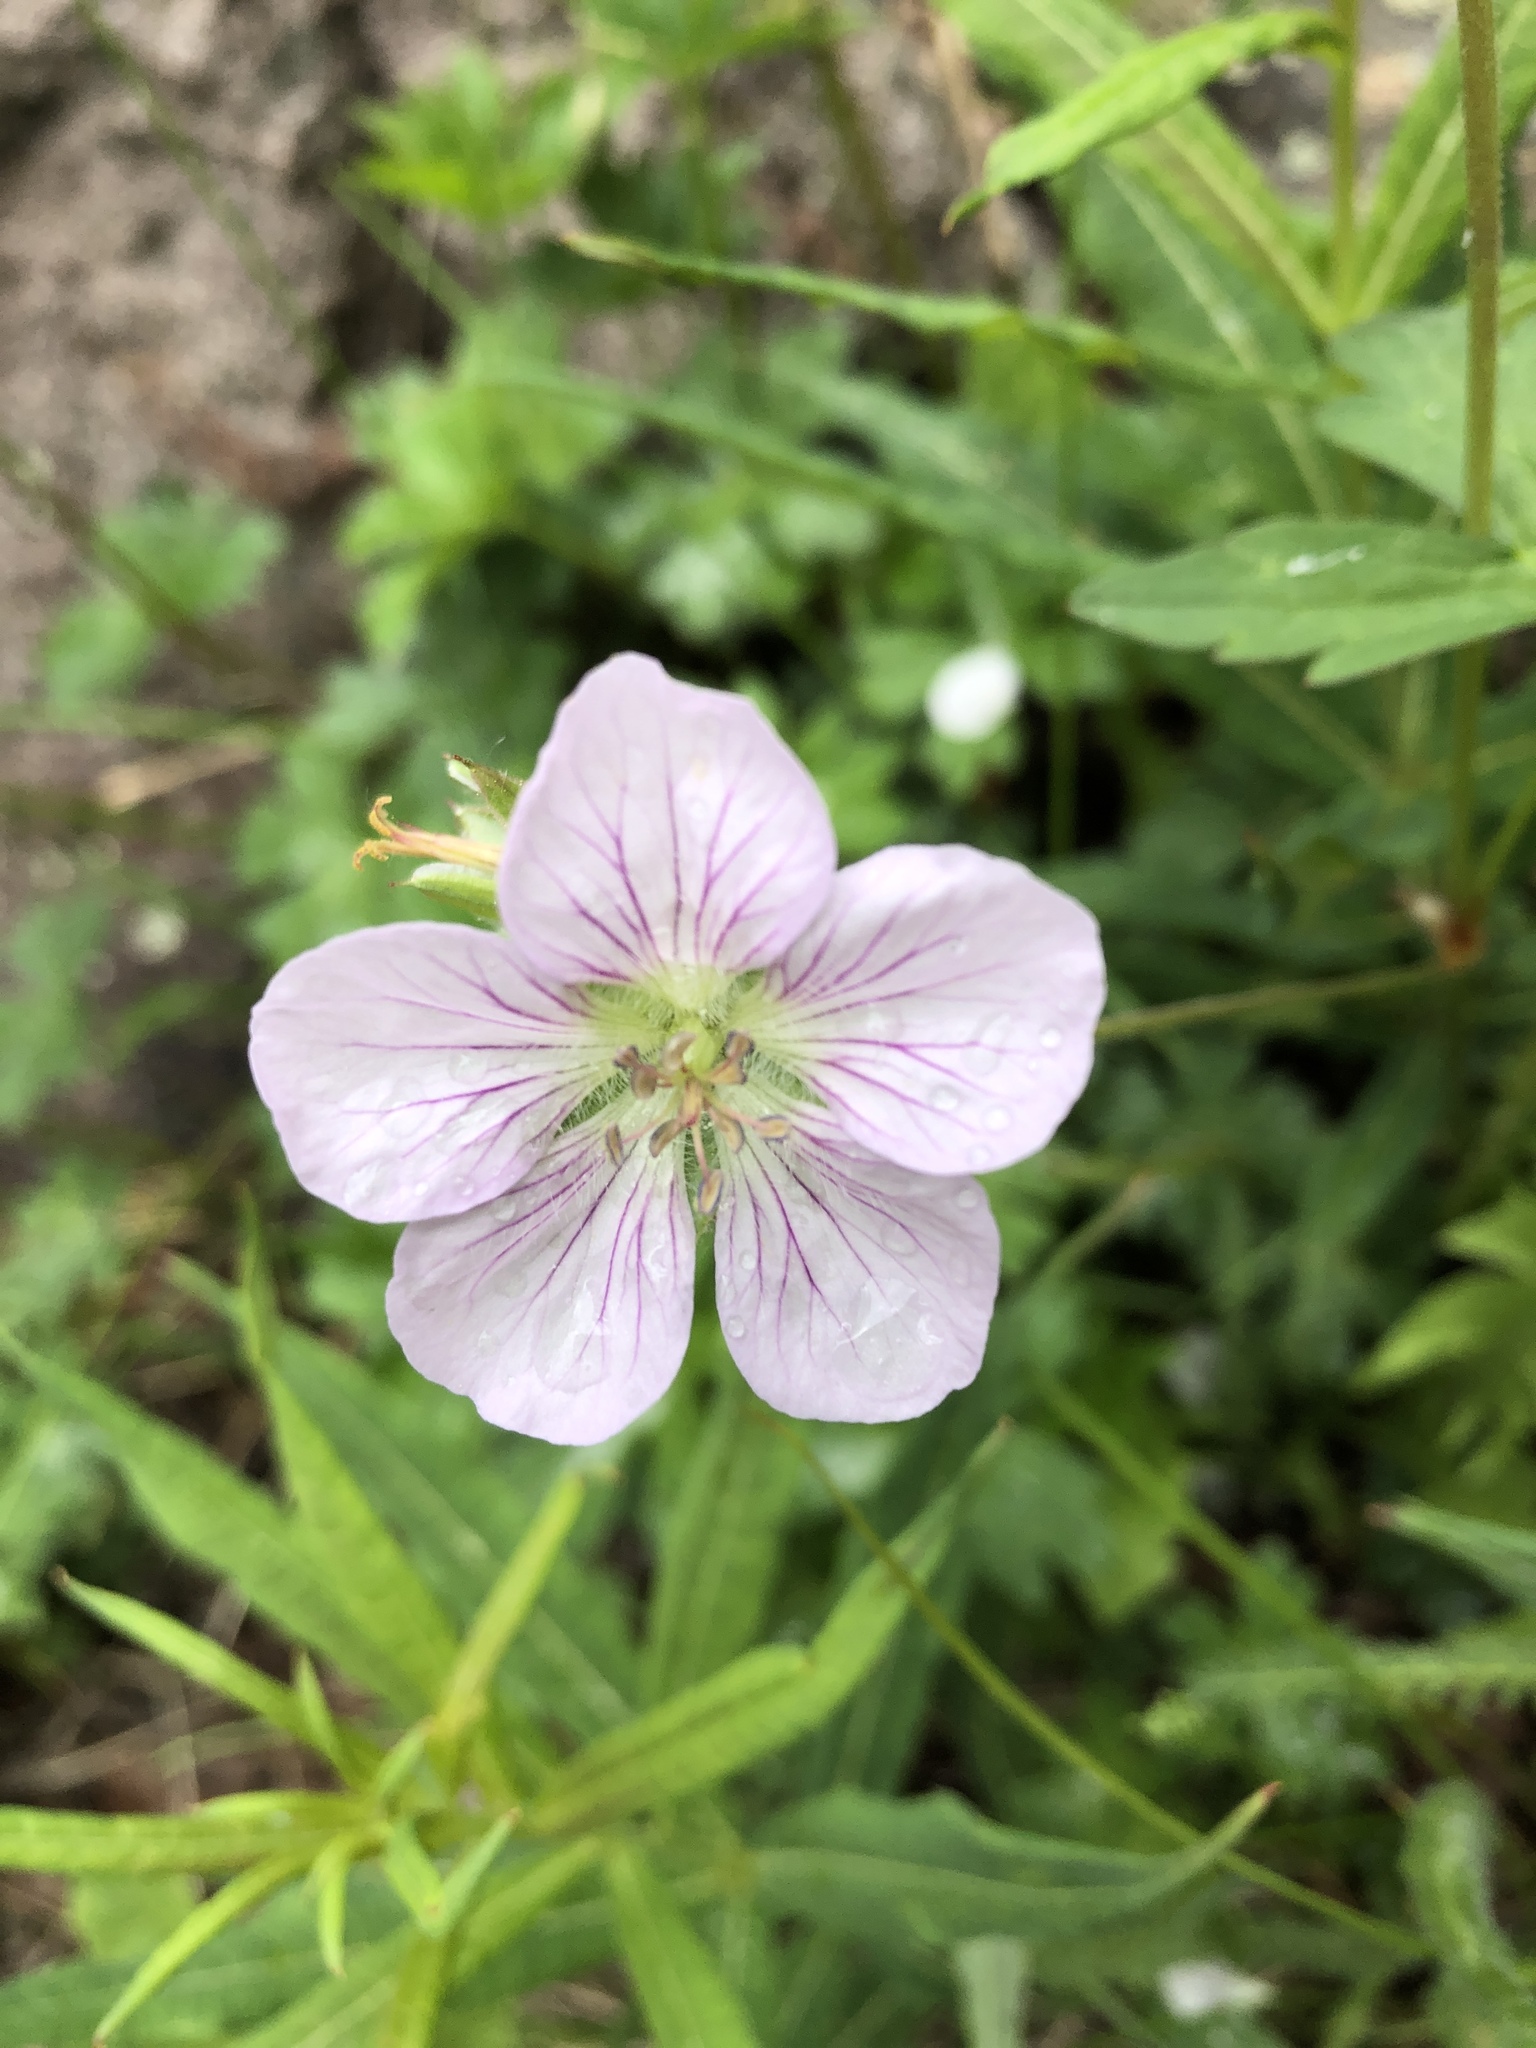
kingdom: Plantae
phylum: Tracheophyta
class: Magnoliopsida
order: Geraniales
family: Geraniaceae
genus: Geranium
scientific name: Geranium richardsonii
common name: Richardson's crane's-bill
